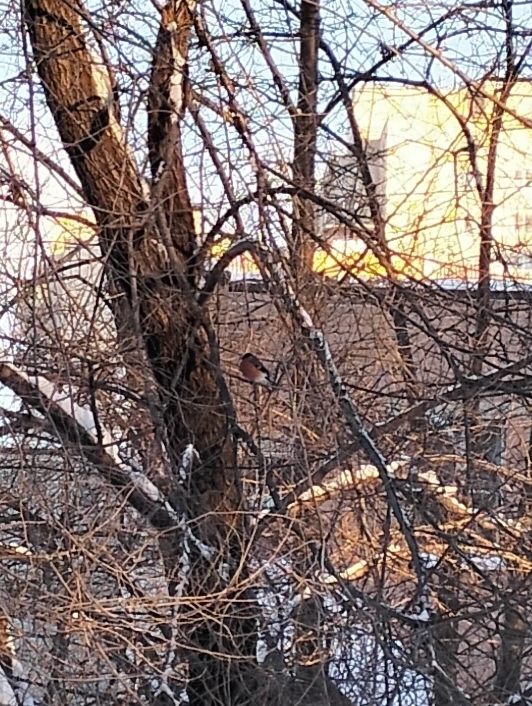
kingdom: Animalia
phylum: Chordata
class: Aves
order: Passeriformes
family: Fringillidae
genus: Pyrrhula
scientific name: Pyrrhula pyrrhula
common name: Eurasian bullfinch
